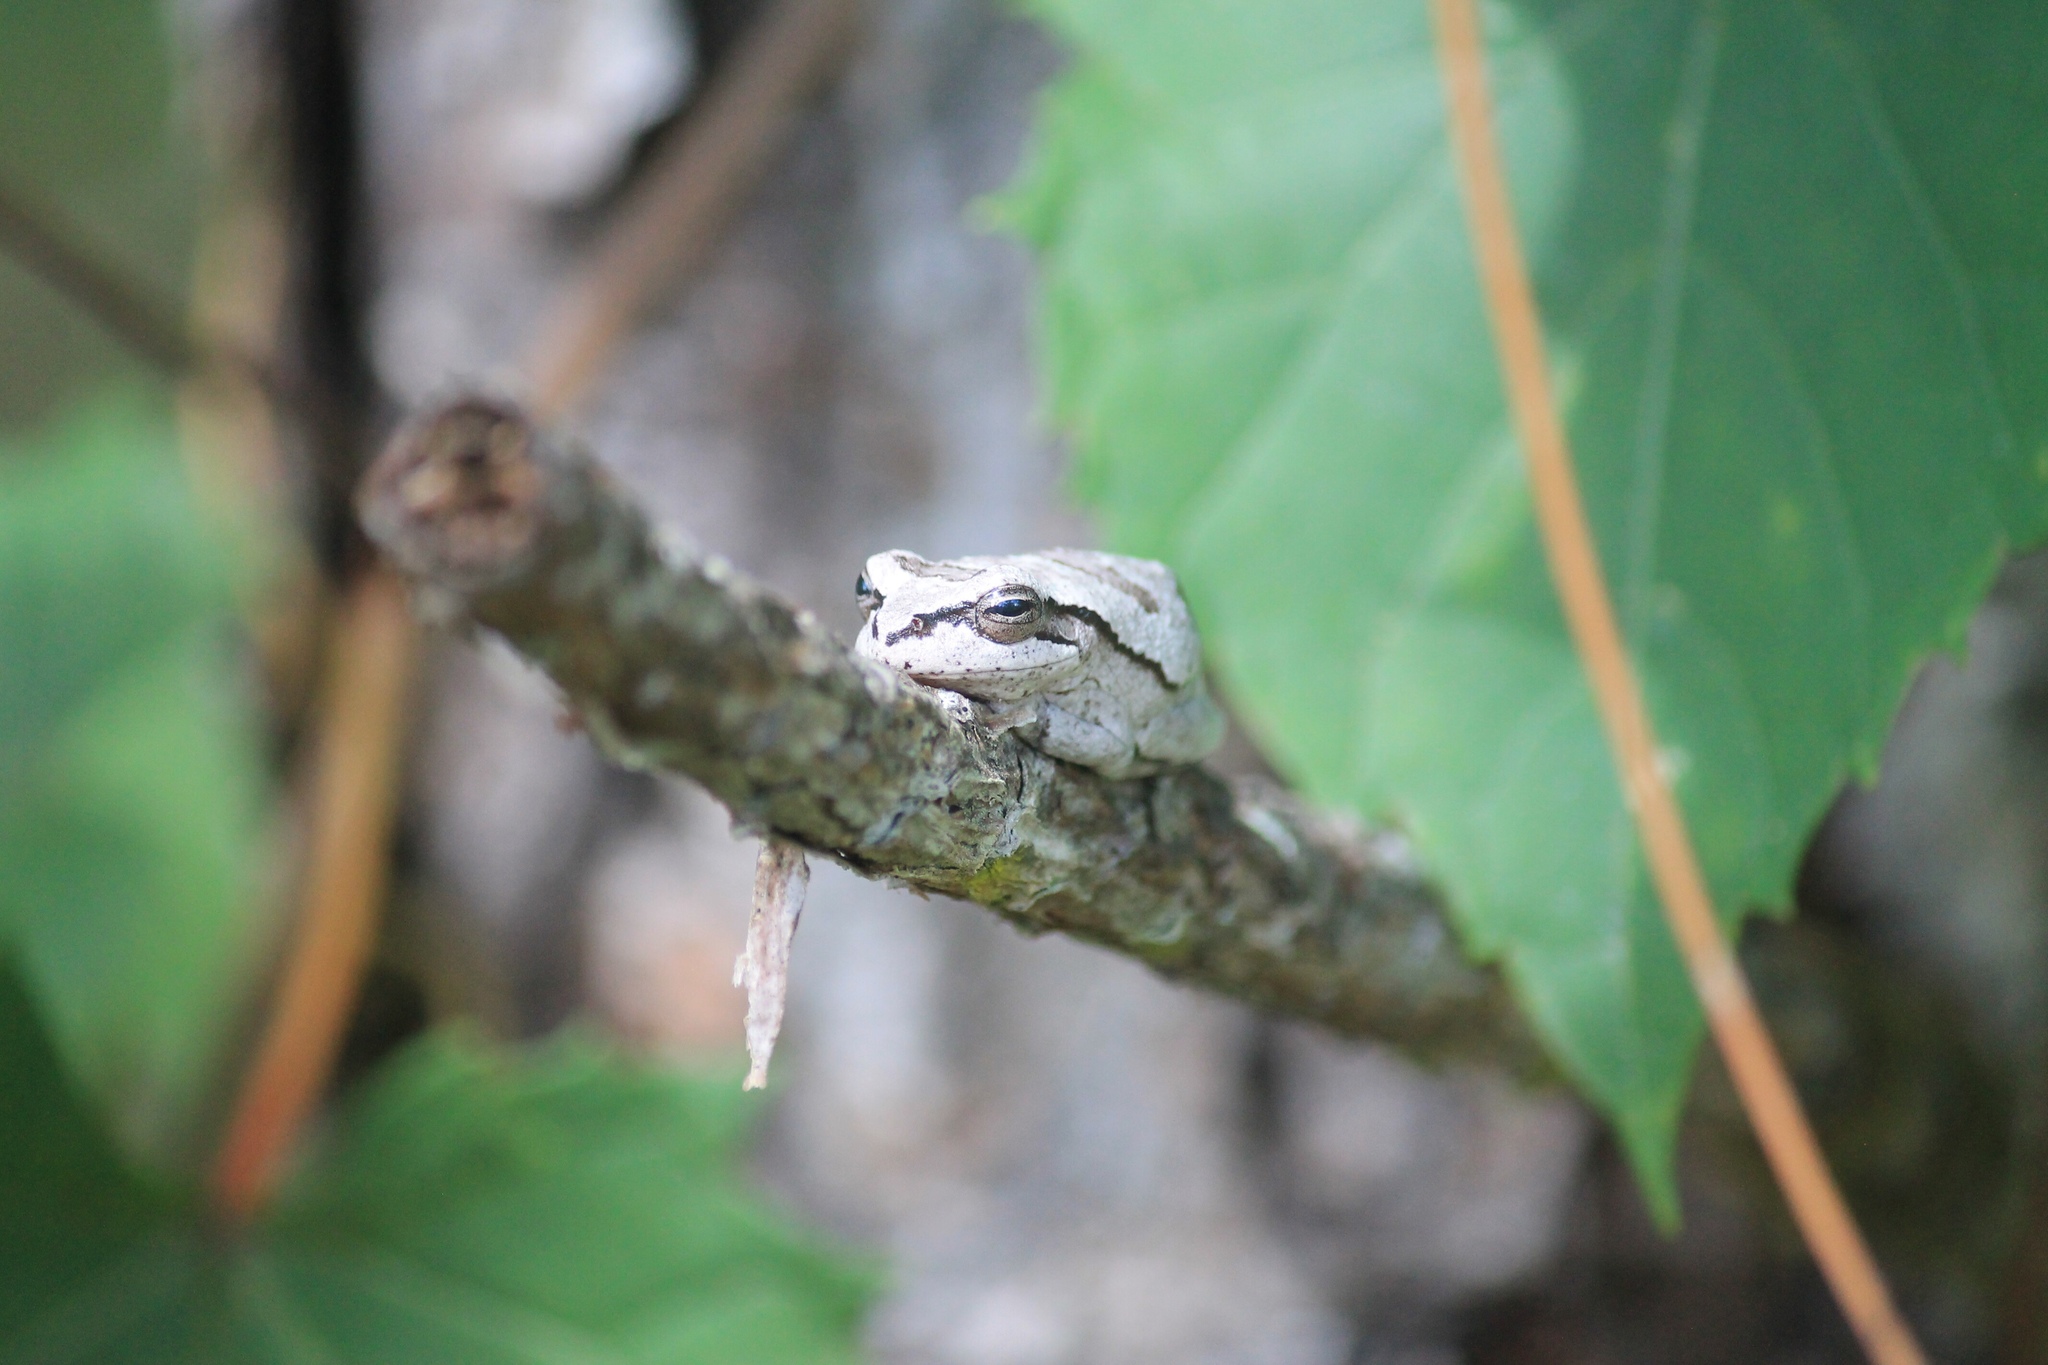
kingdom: Animalia
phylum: Chordata
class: Amphibia
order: Anura
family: Hylidae
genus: Hyla
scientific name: Hyla femoralis
